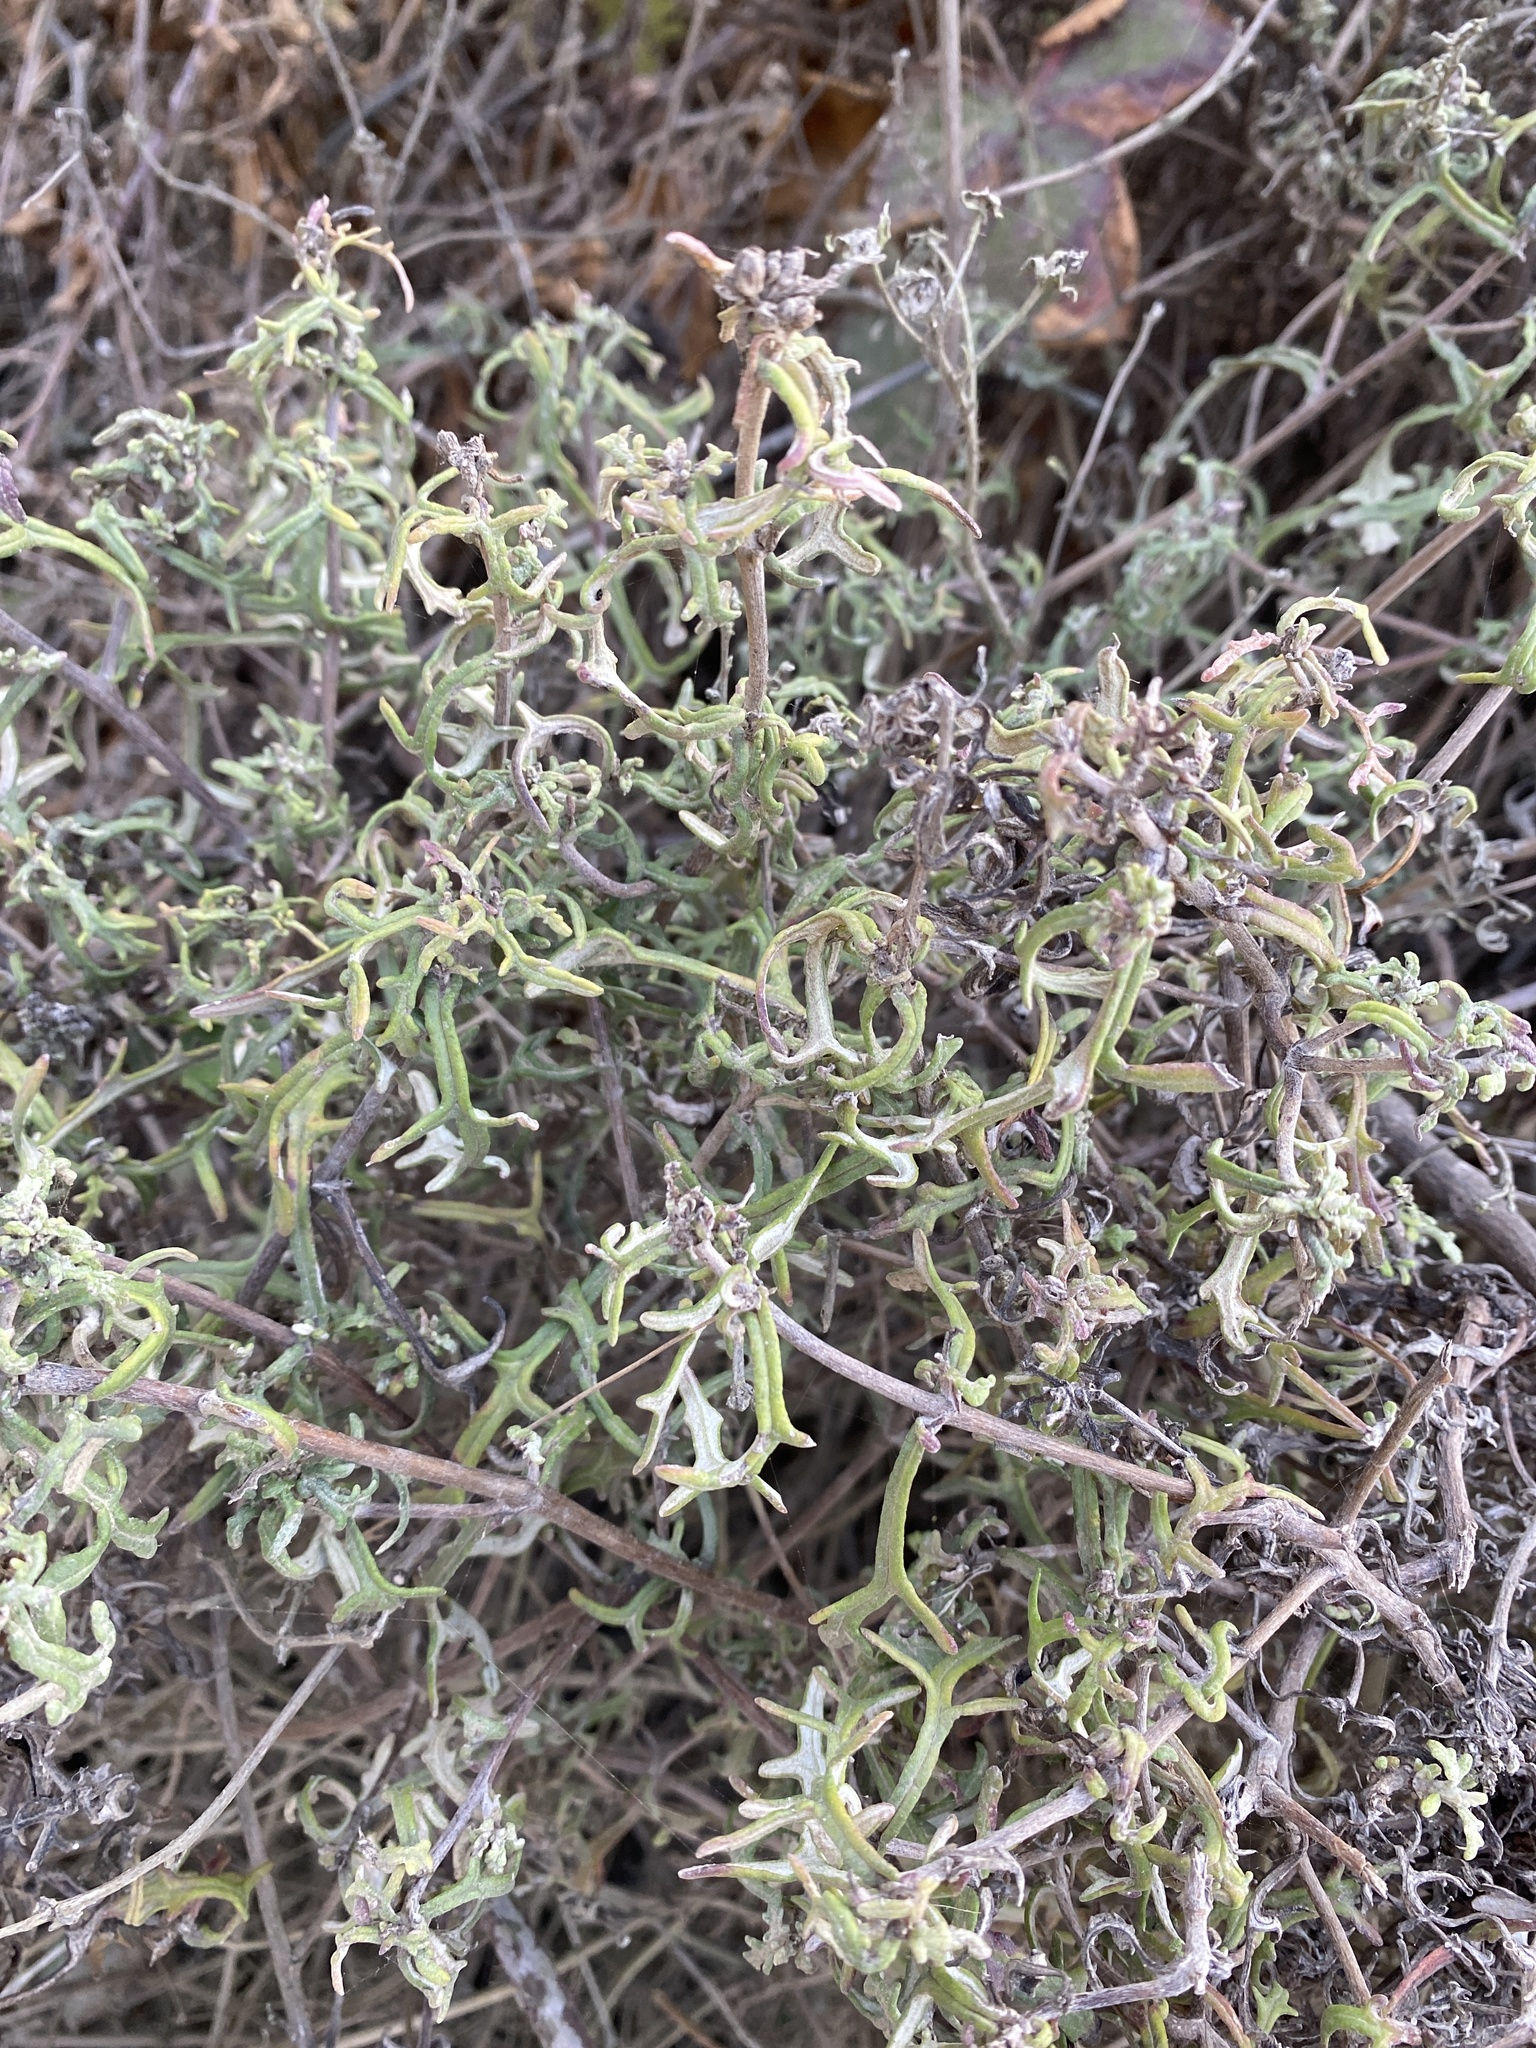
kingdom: Plantae
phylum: Tracheophyta
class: Magnoliopsida
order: Asterales
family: Asteraceae
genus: Eriophyllum
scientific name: Eriophyllum staechadifolium
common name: Lizardtail
